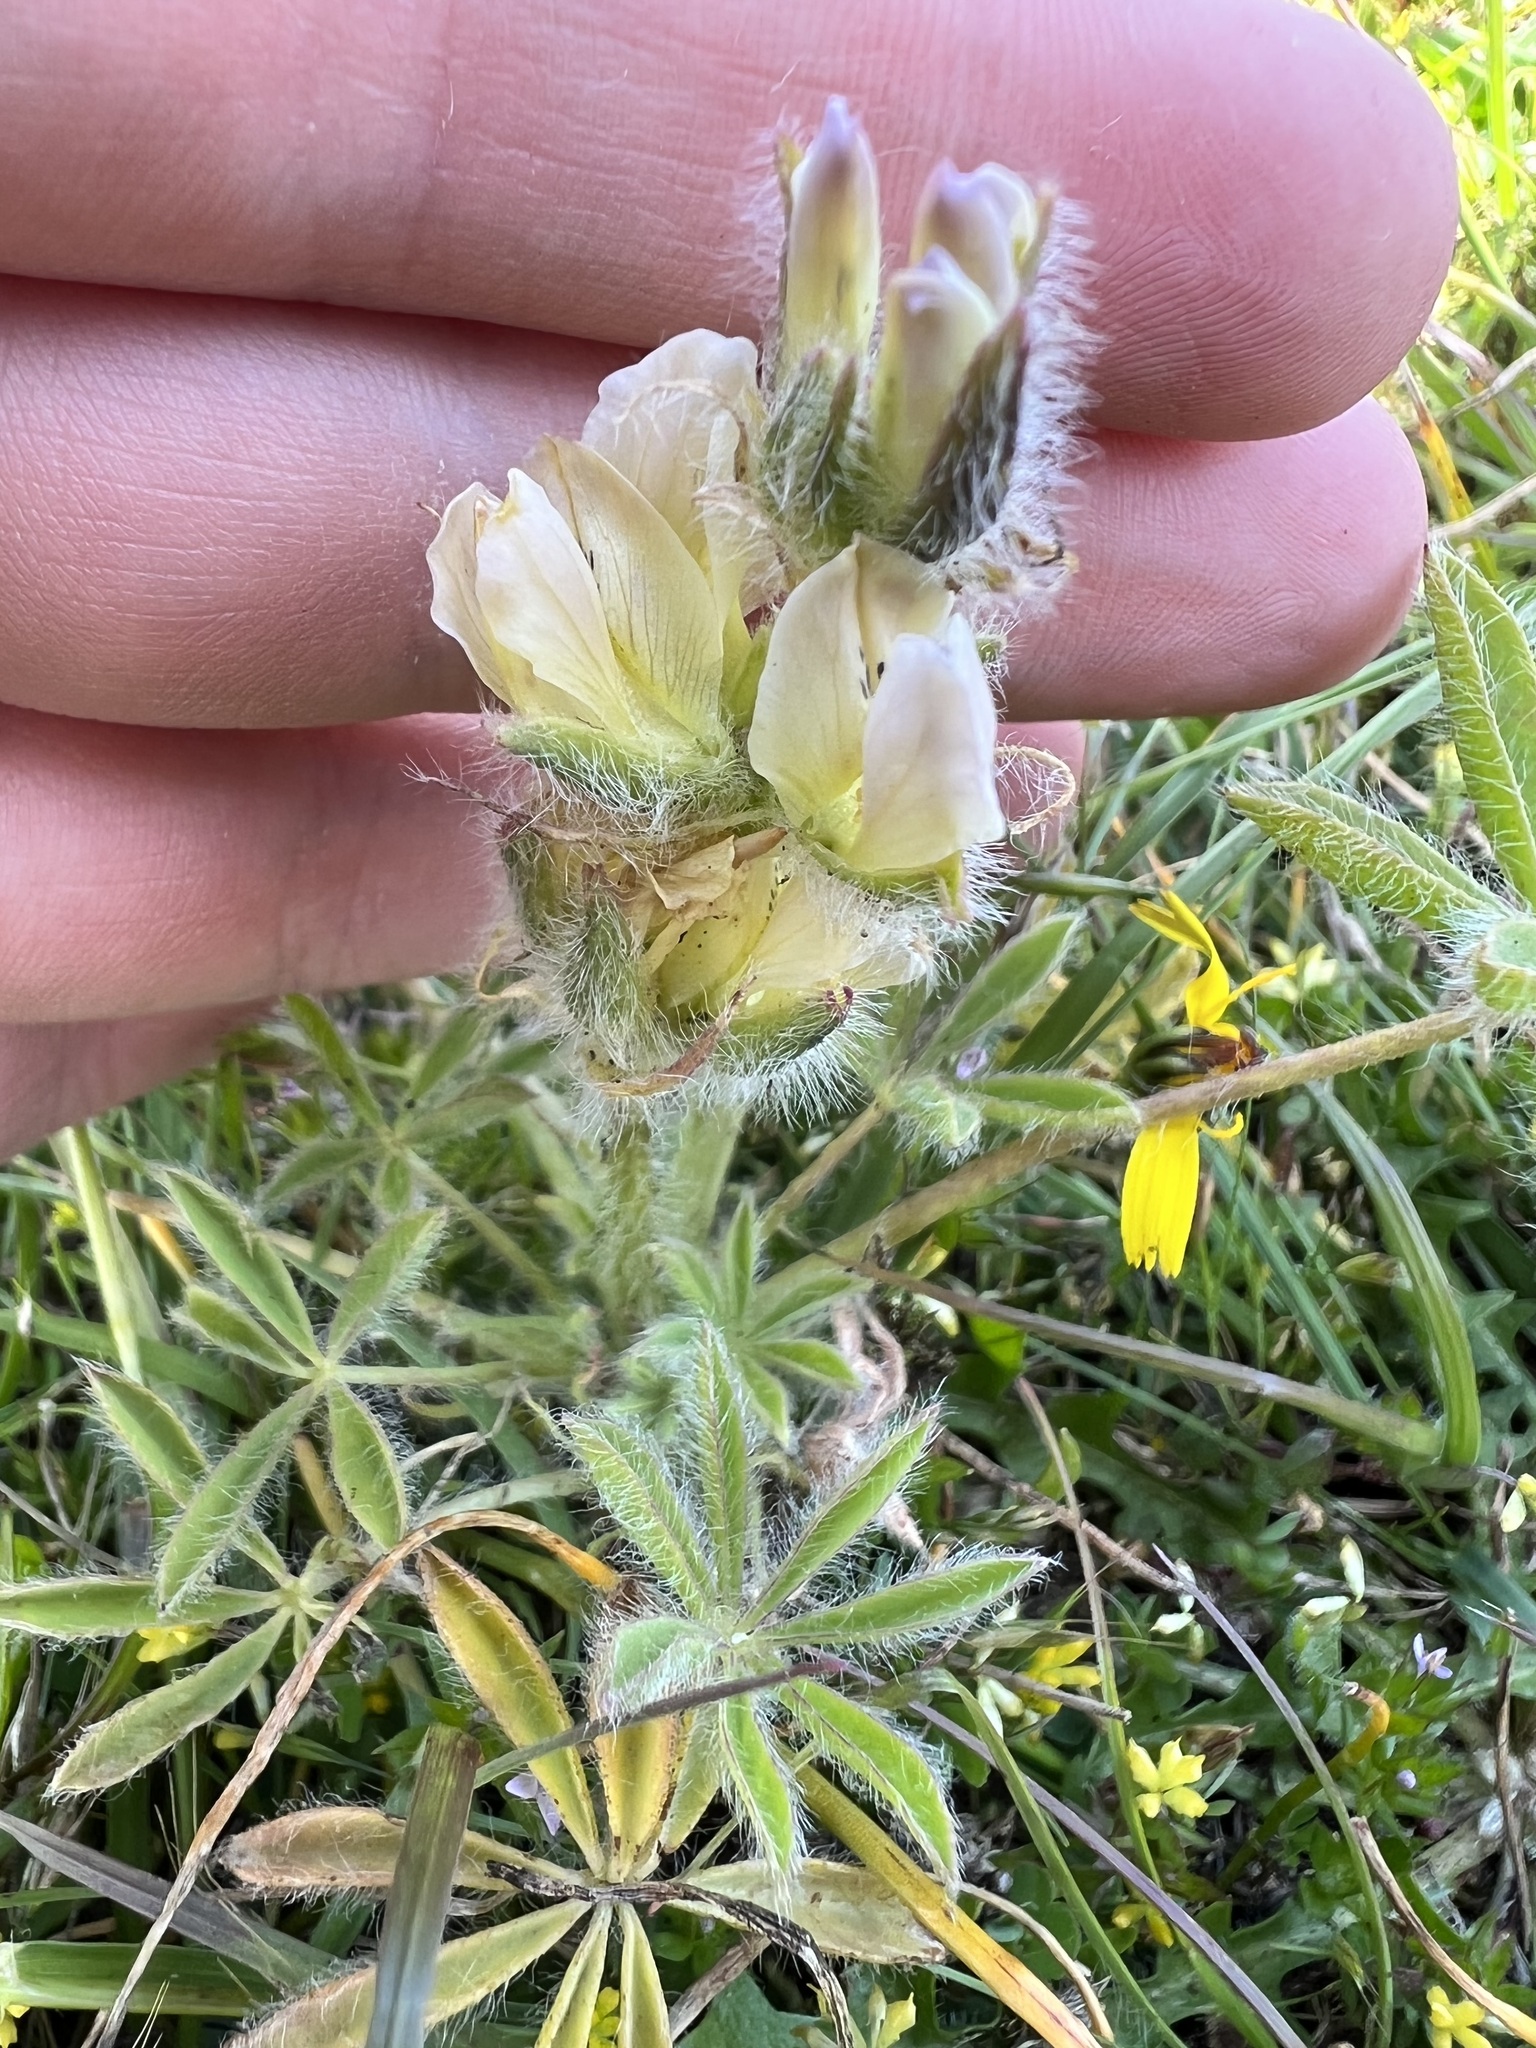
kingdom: Plantae
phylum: Tracheophyta
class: Magnoliopsida
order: Fabales
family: Fabaceae
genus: Lupinus
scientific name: Lupinus densiflorus
